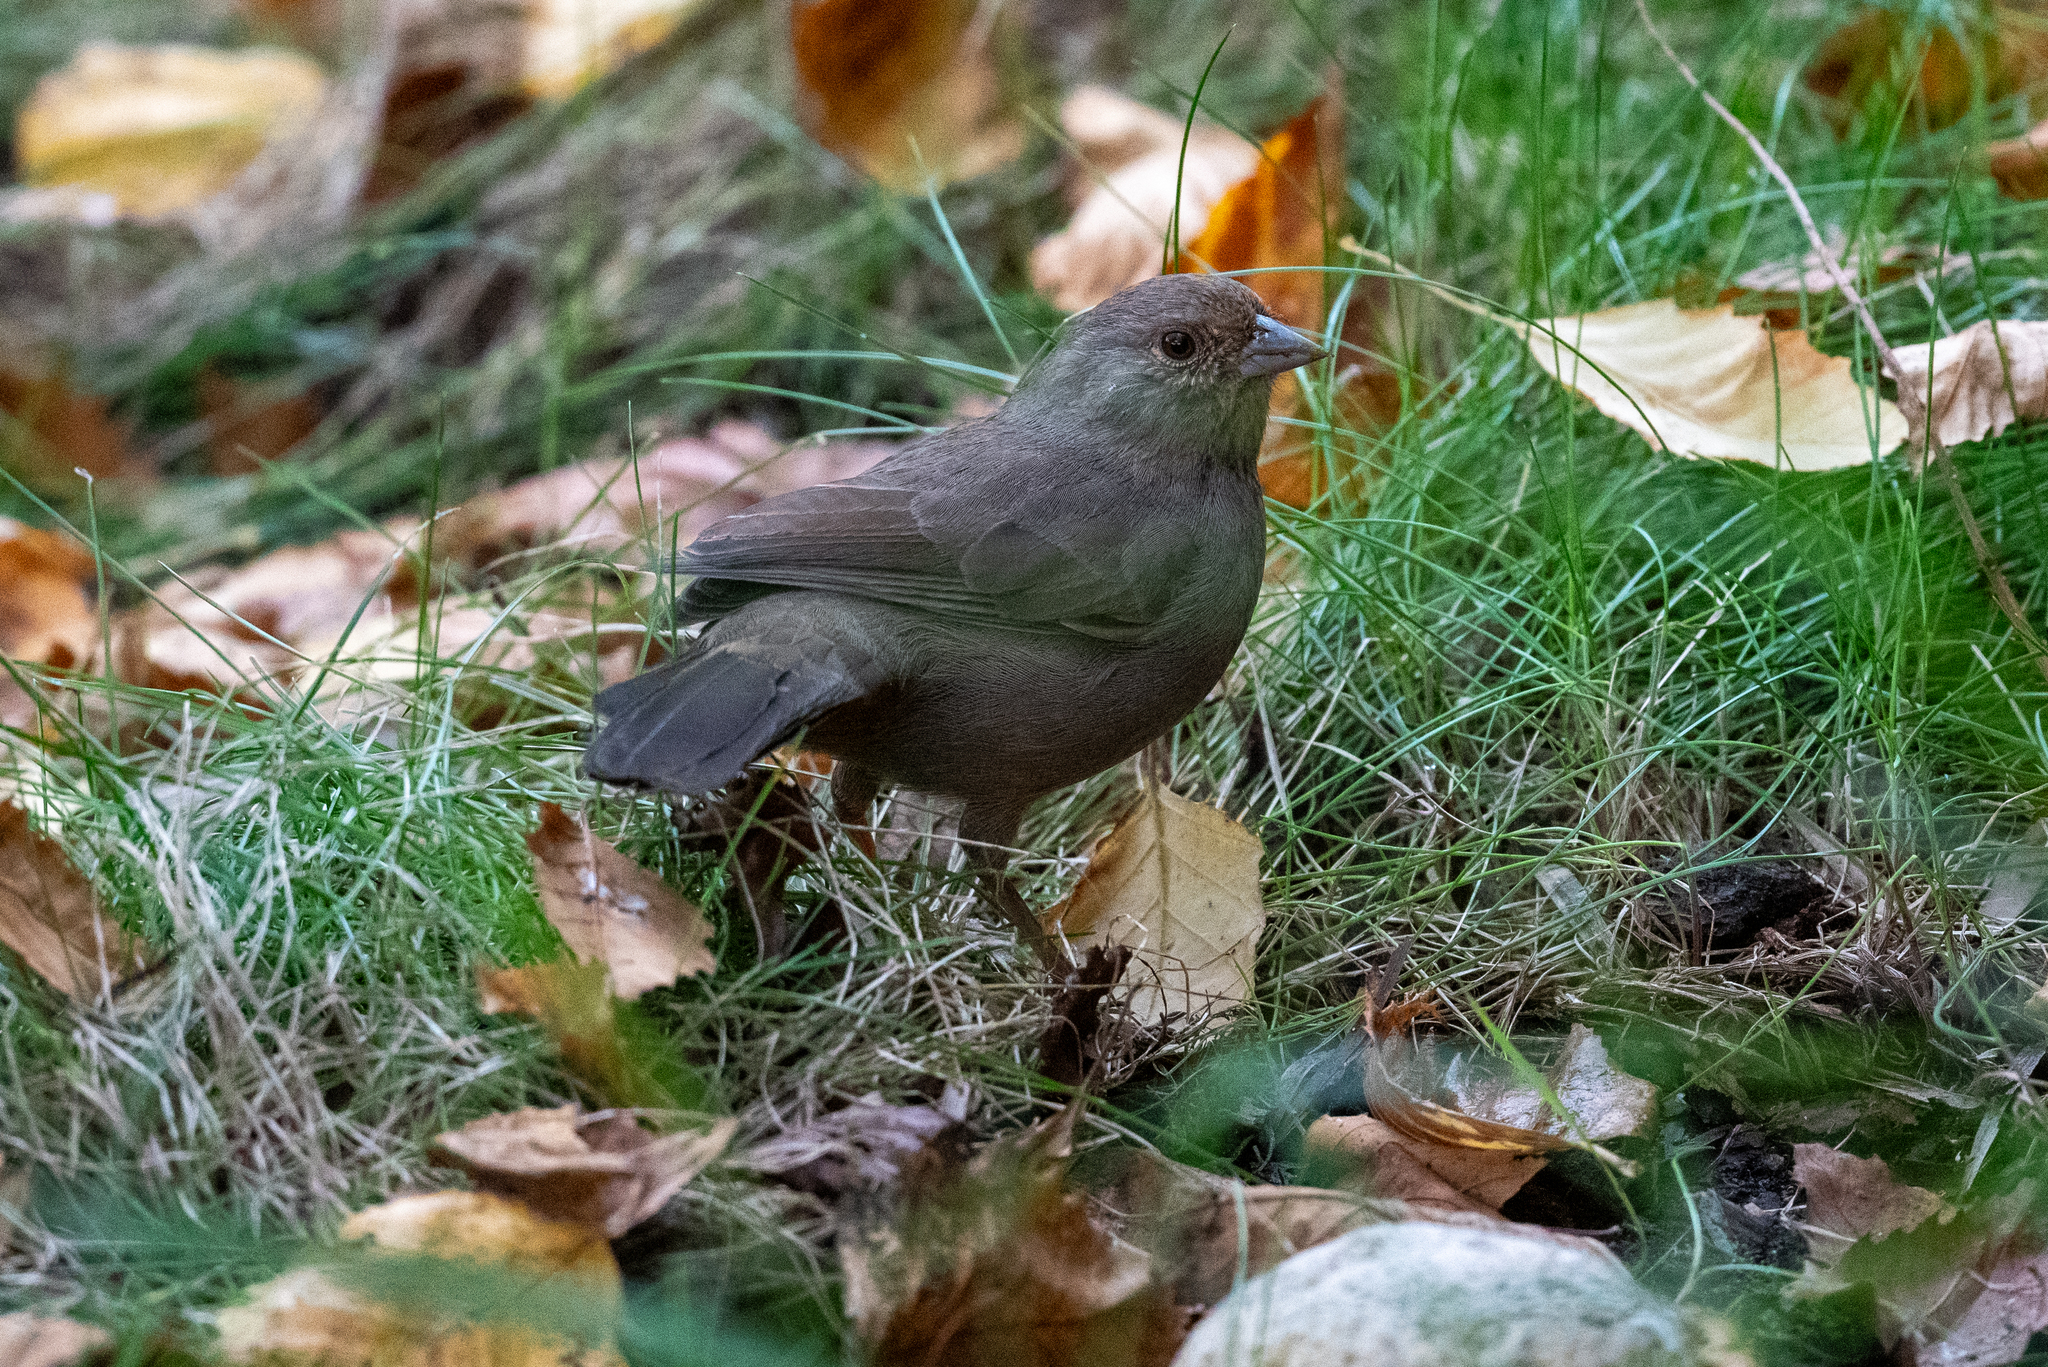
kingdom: Animalia
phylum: Chordata
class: Aves
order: Passeriformes
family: Passerellidae
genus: Melozone
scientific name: Melozone crissalis
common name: California towhee
